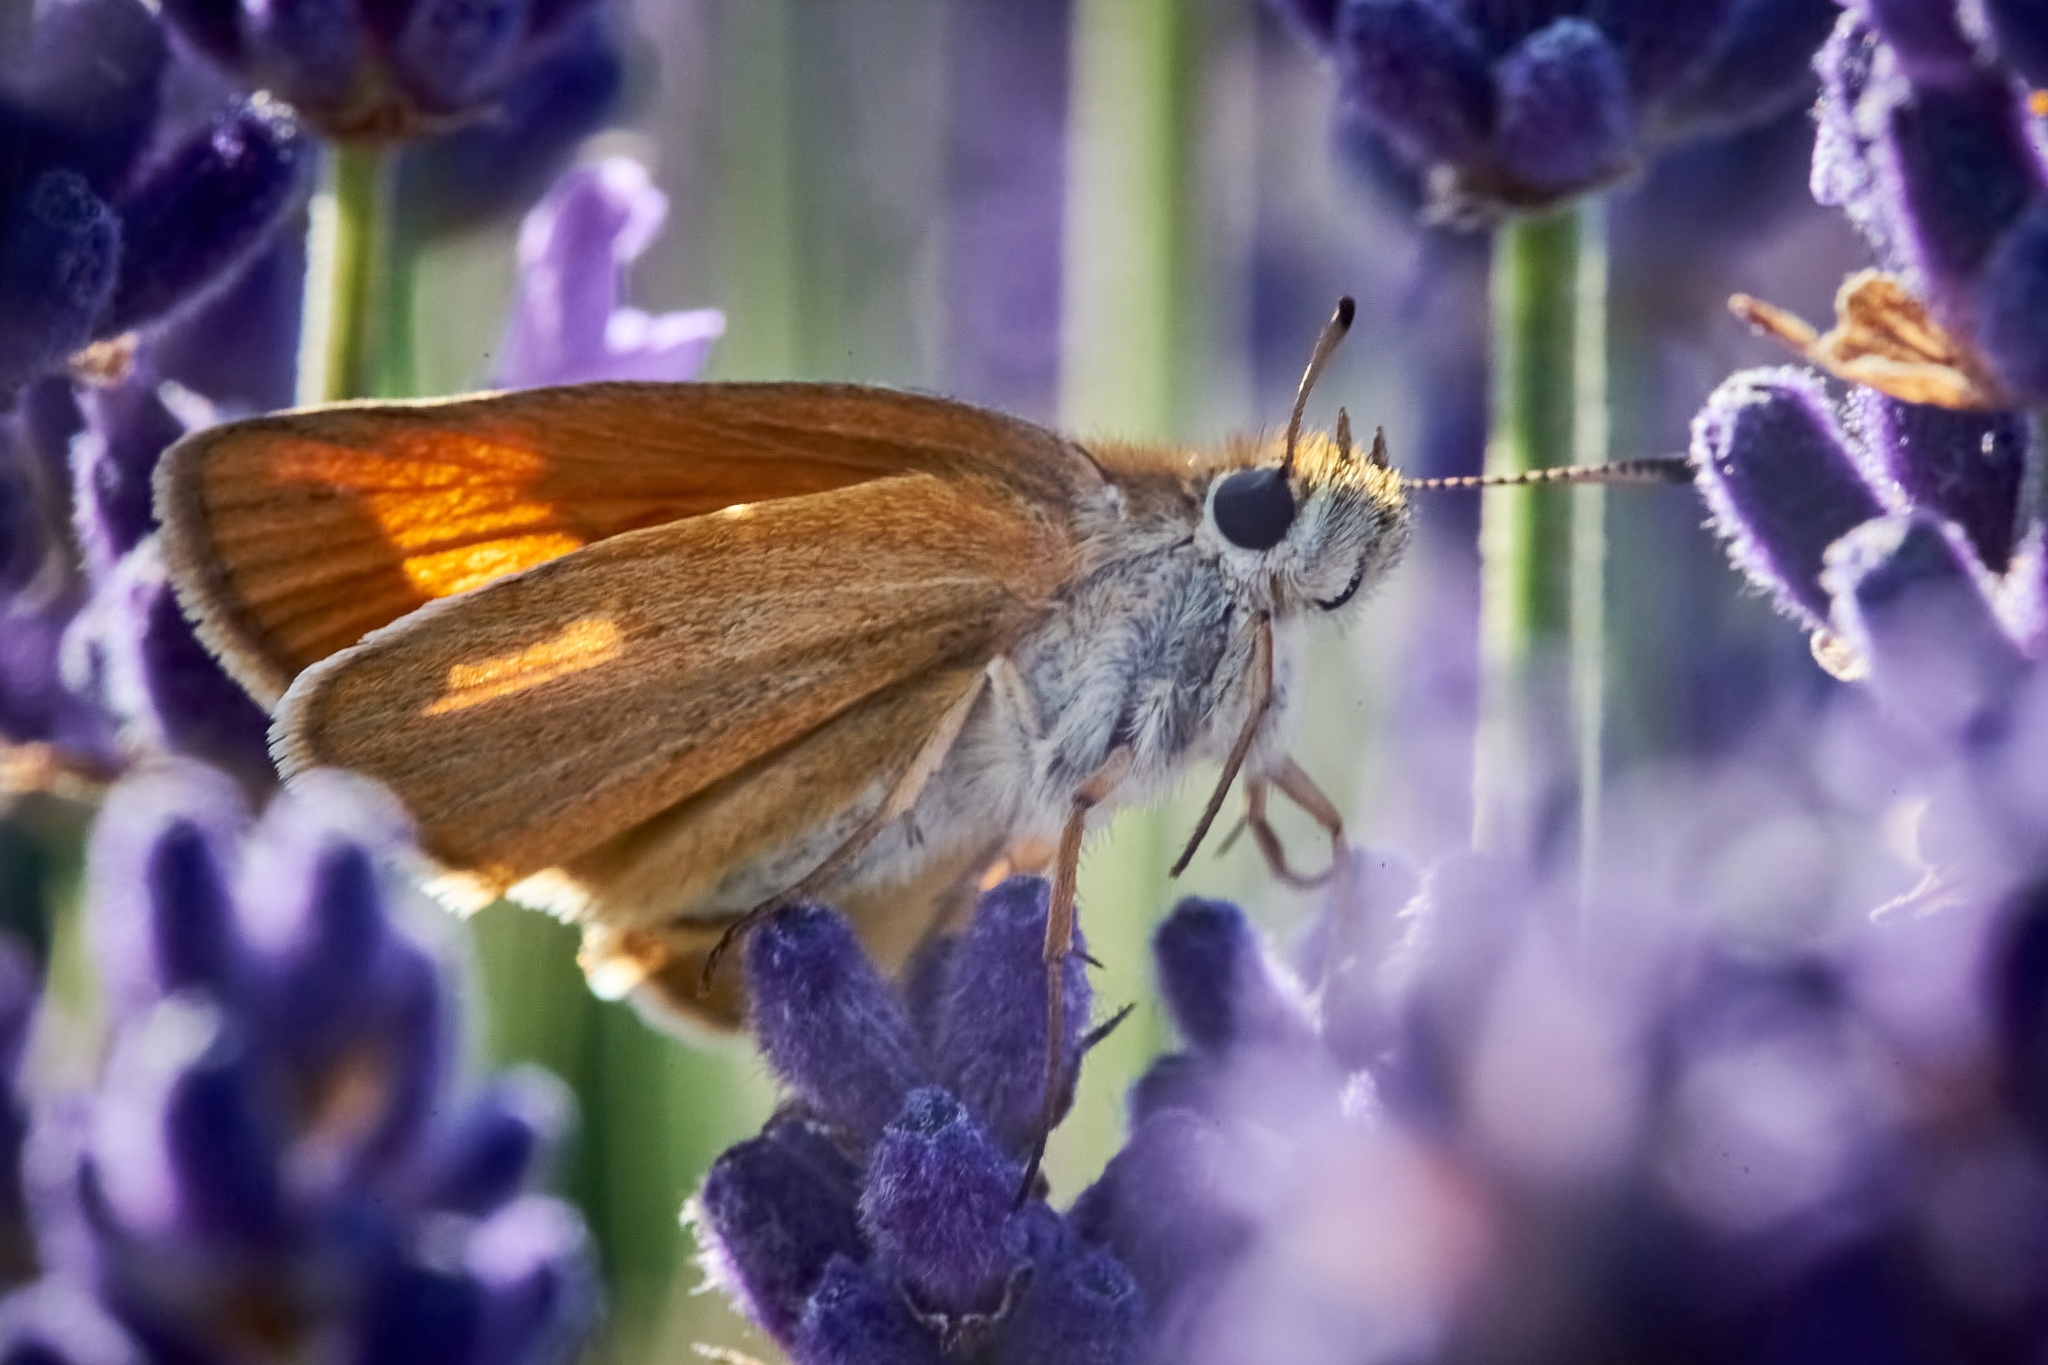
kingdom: Animalia
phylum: Arthropoda
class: Insecta
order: Lepidoptera
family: Nymphalidae
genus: Maniola
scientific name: Maniola jurtina
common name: Meadow brown
